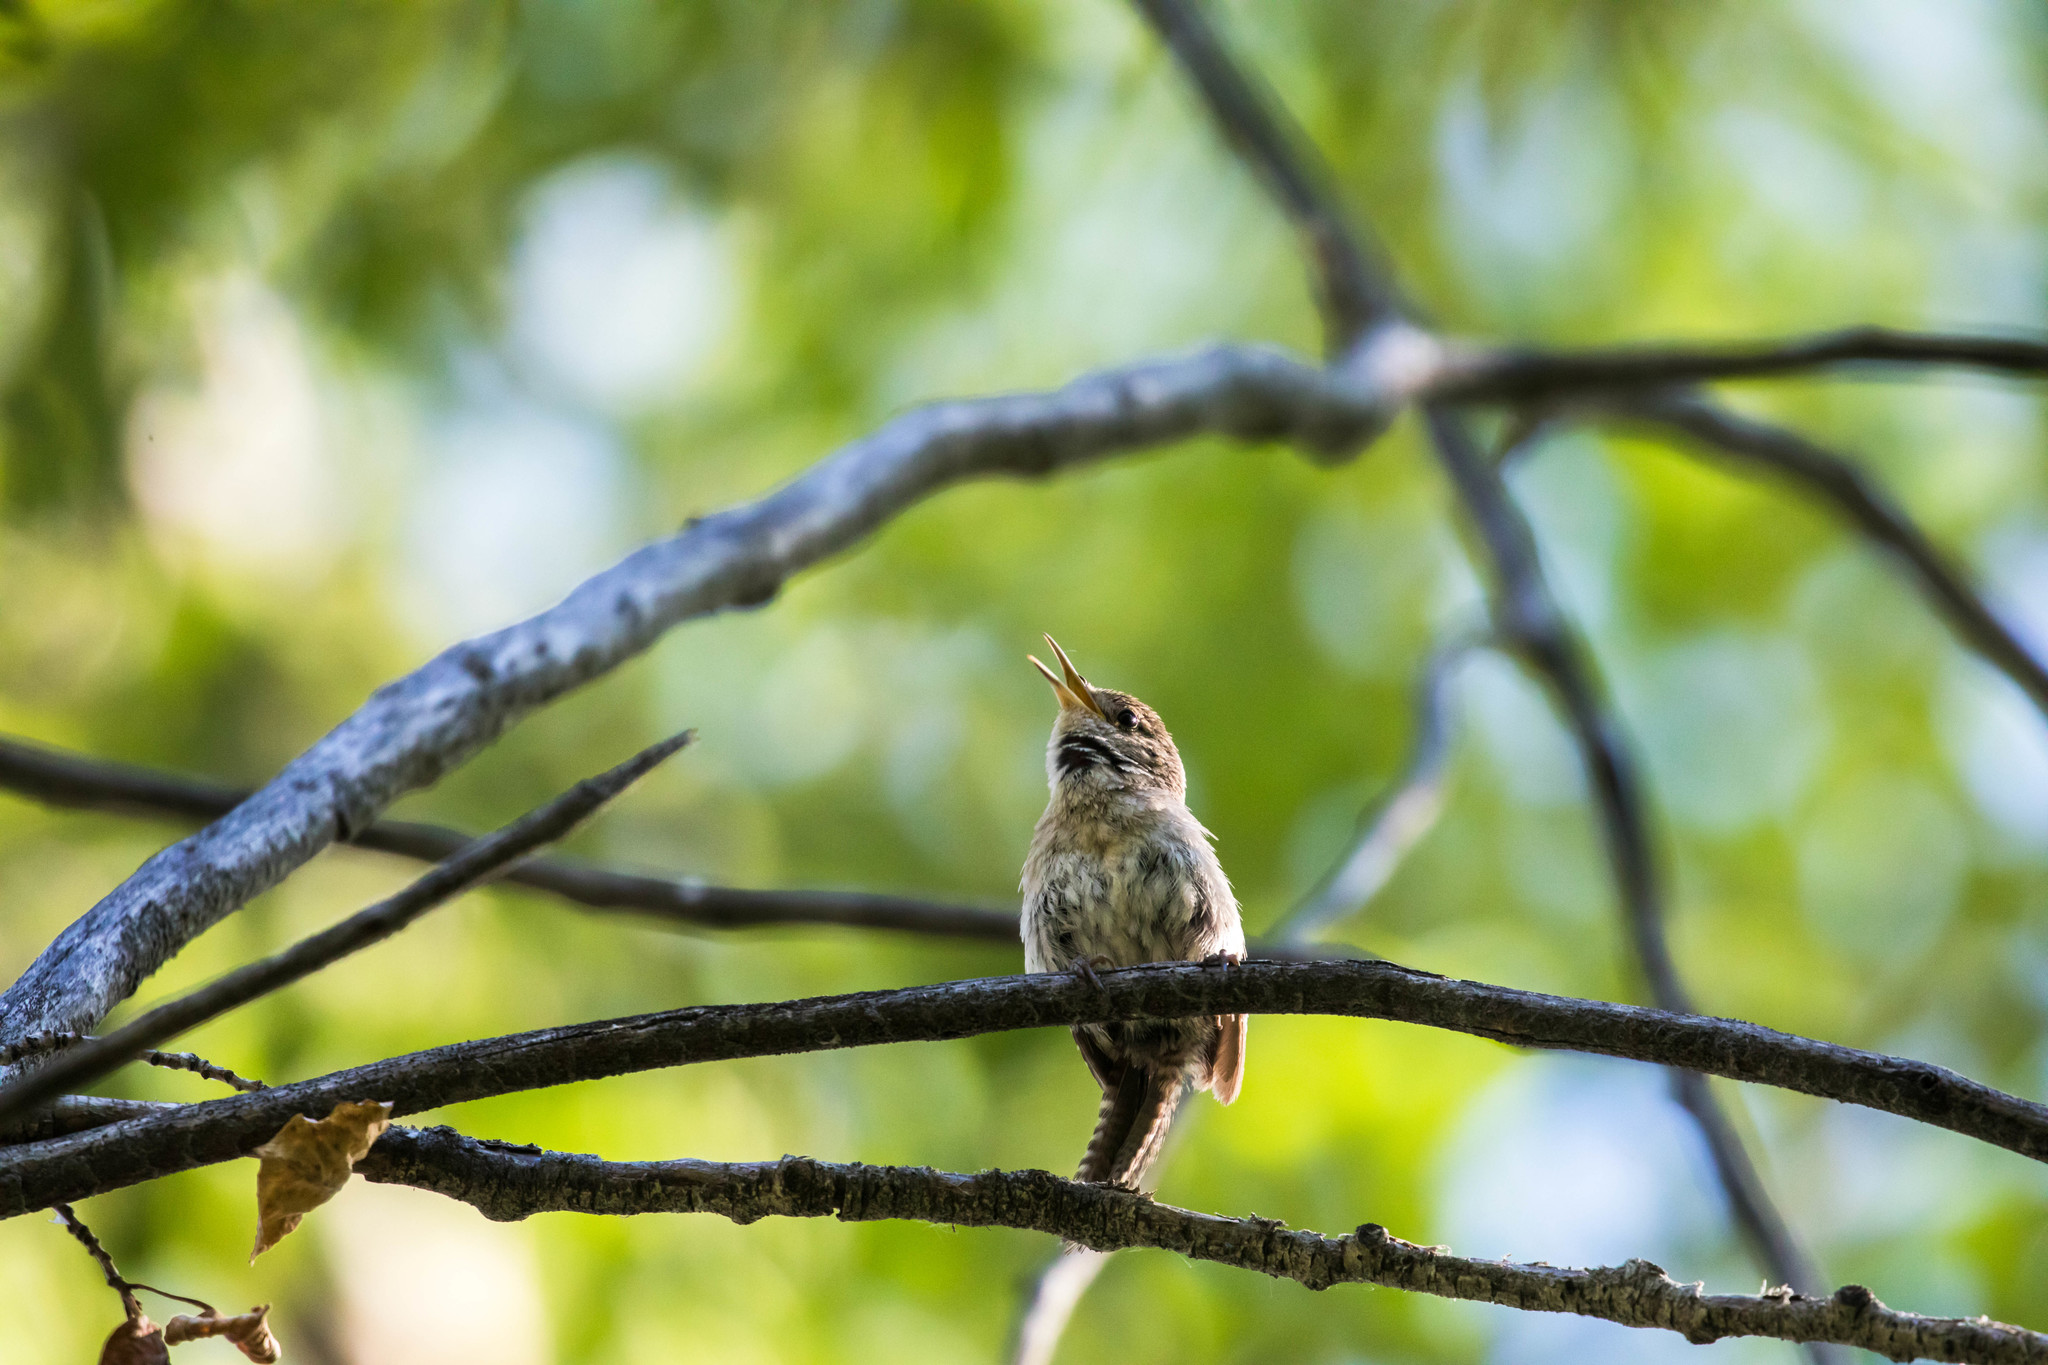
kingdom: Animalia
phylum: Chordata
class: Aves
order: Passeriformes
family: Troglodytidae
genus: Troglodytes
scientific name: Troglodytes aedon
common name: House wren
